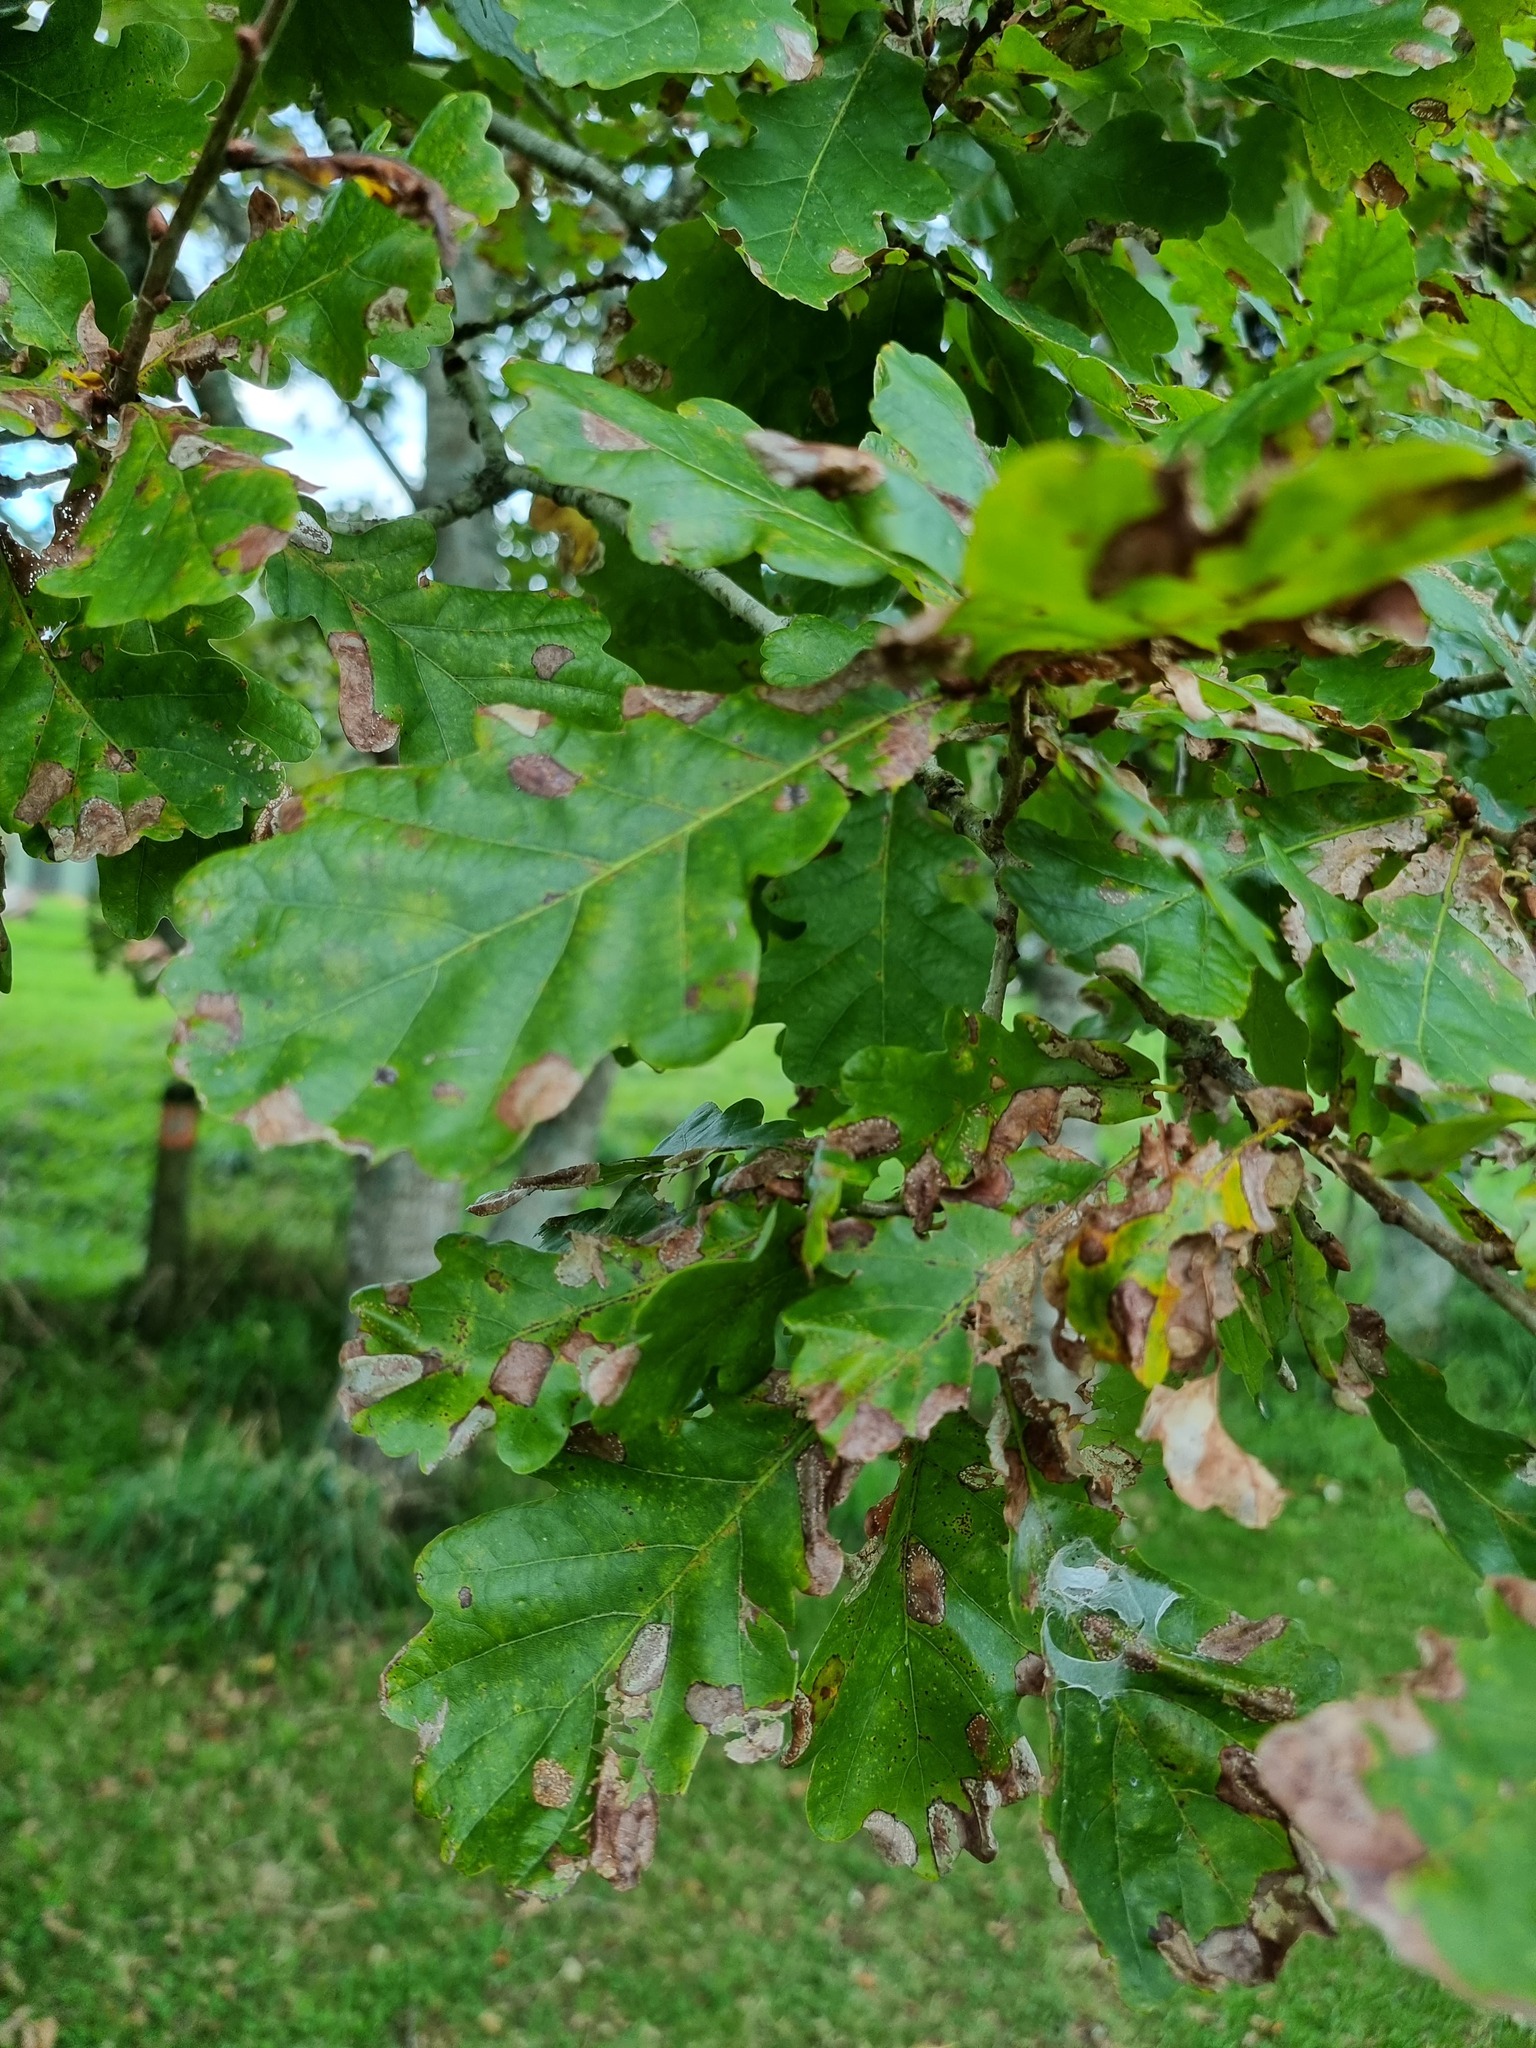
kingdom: Plantae
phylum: Tracheophyta
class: Magnoliopsida
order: Fagales
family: Fagaceae
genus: Quercus
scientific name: Quercus robur
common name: Pedunculate oak
